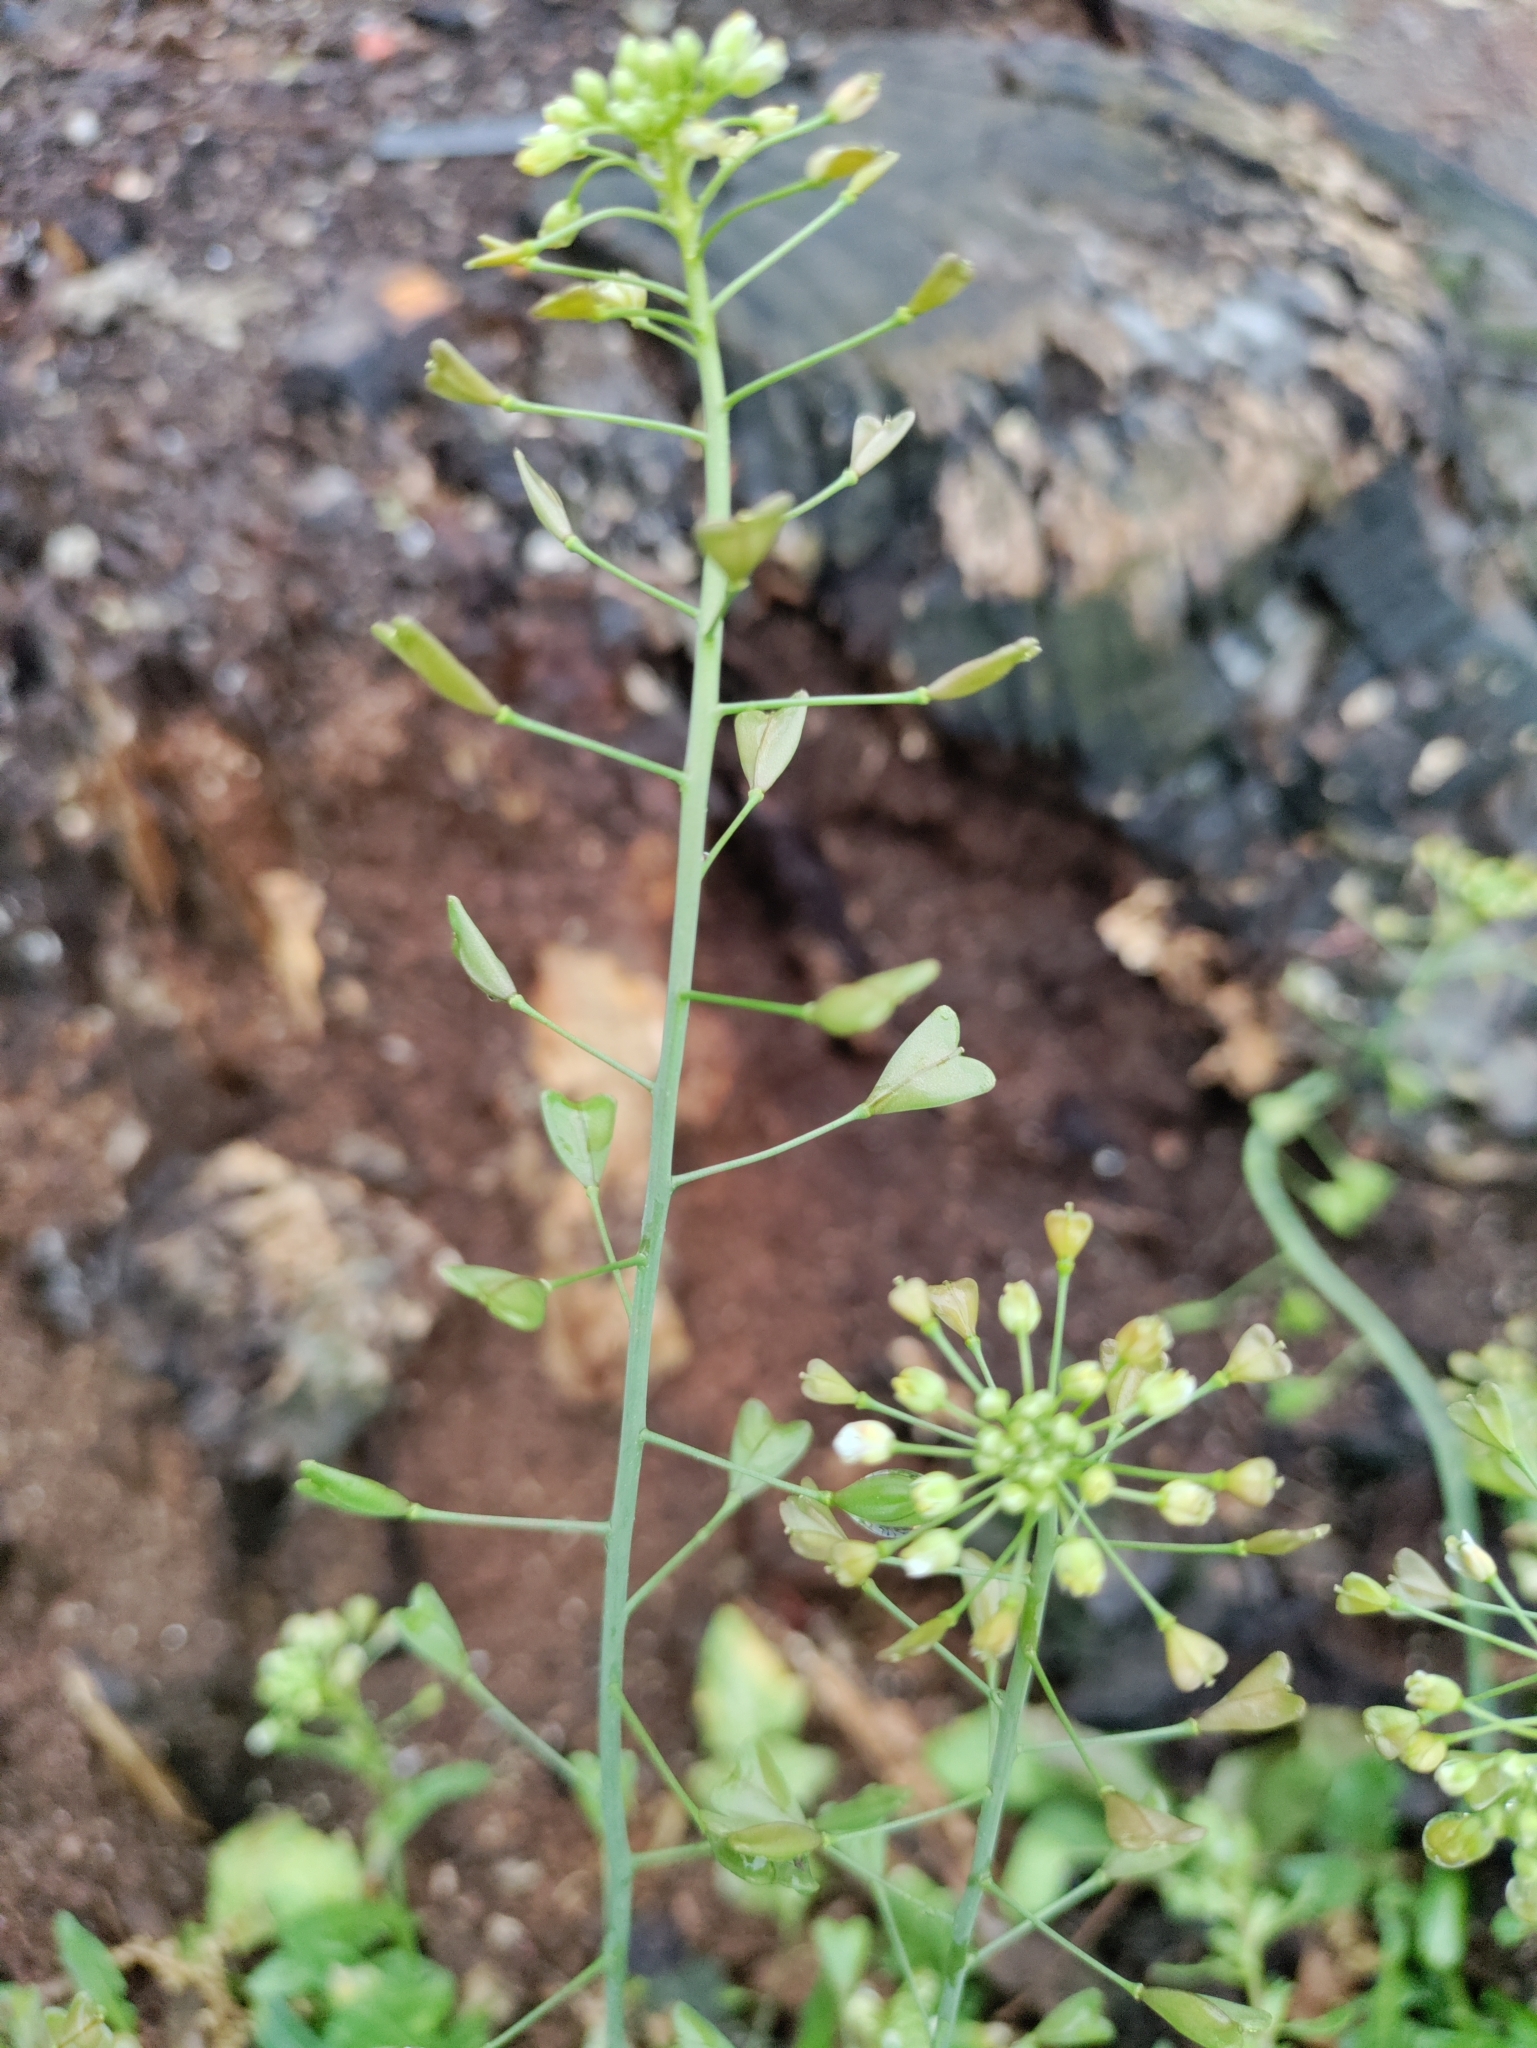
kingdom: Plantae
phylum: Tracheophyta
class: Magnoliopsida
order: Brassicales
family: Brassicaceae
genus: Capsella
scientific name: Capsella bursa-pastoris
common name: Shepherd's purse
